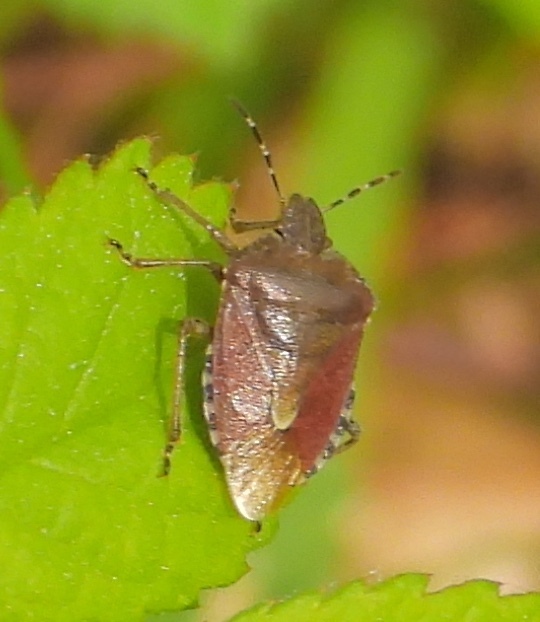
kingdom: Animalia
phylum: Arthropoda
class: Insecta
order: Hemiptera
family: Pentatomidae
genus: Dolycoris
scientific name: Dolycoris baccarum
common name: Sloe bug
